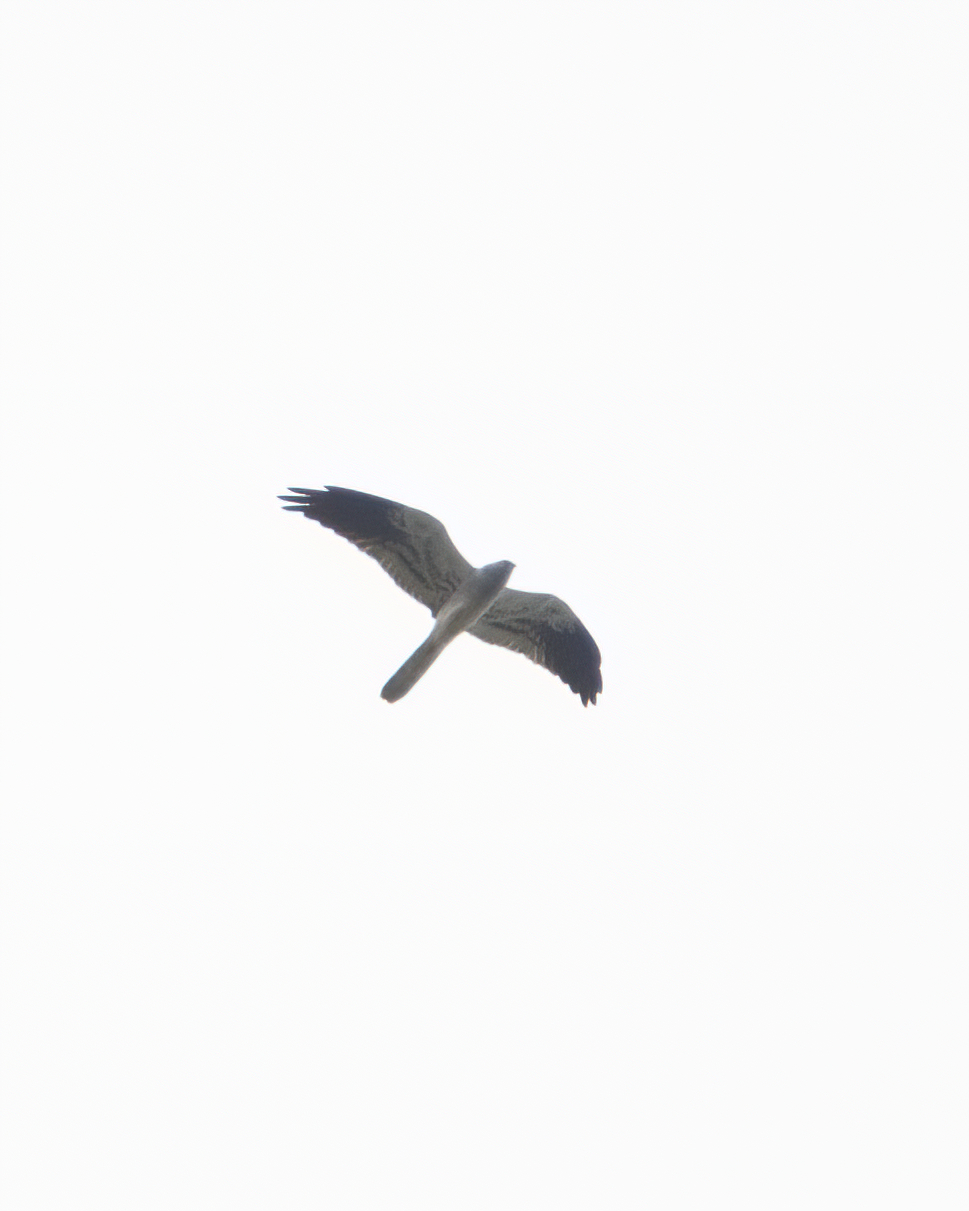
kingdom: Animalia
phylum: Chordata
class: Aves
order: Accipitriformes
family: Accipitridae
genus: Circus
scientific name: Circus pygargus
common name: Montagu's harrier
